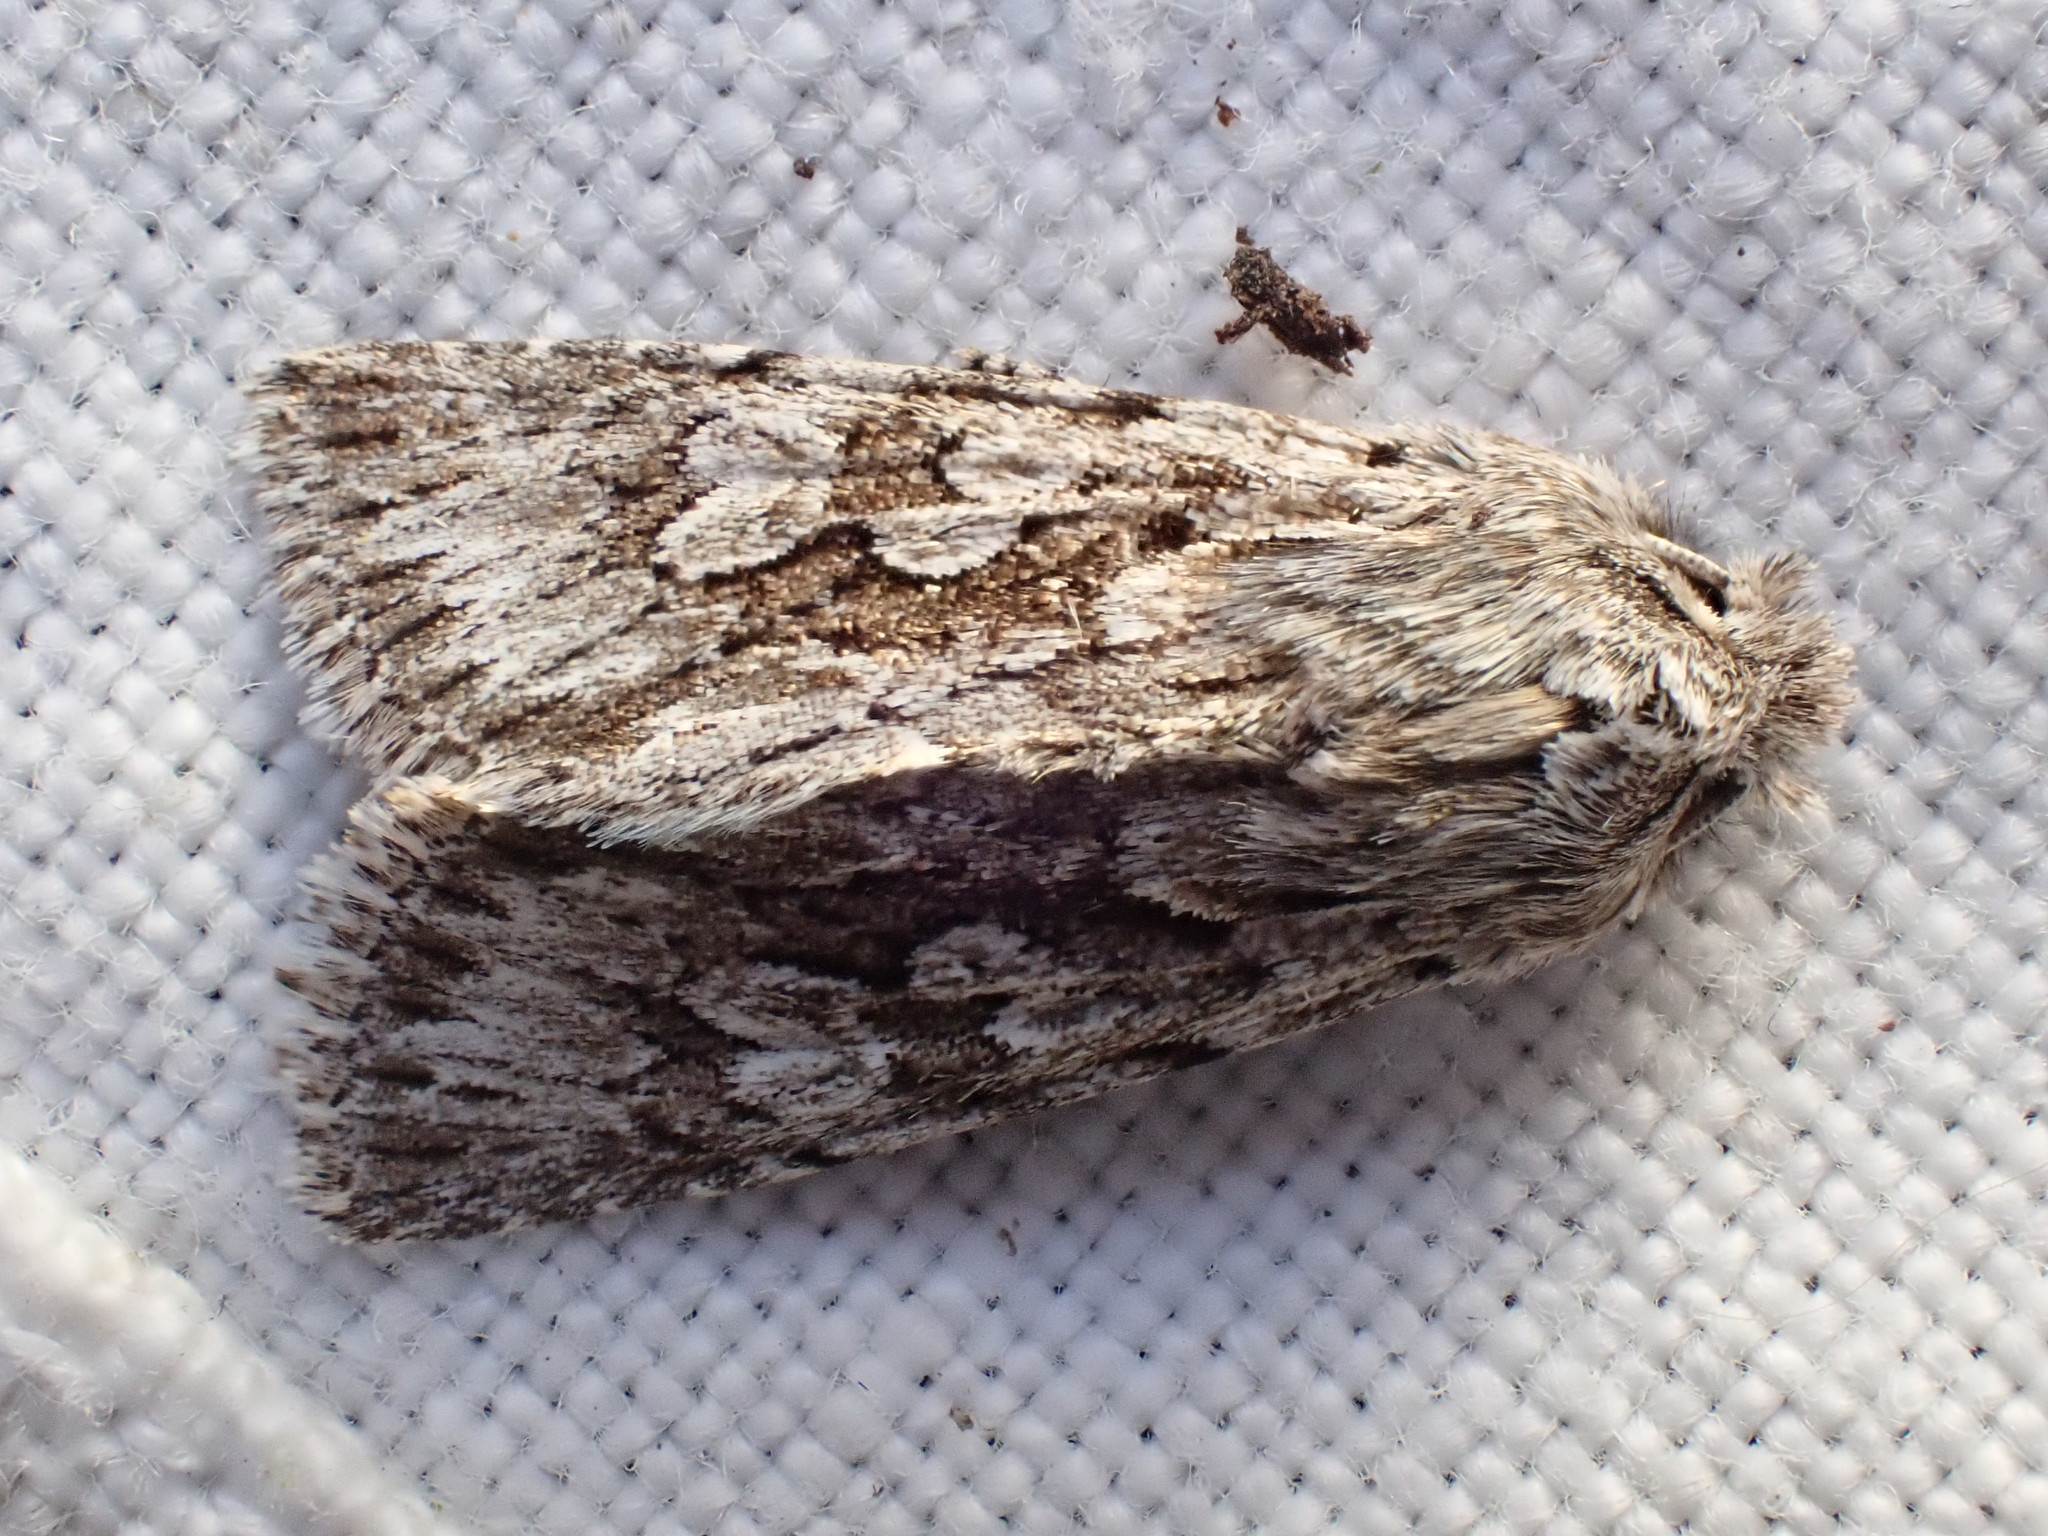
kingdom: Animalia
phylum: Arthropoda
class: Insecta
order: Lepidoptera
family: Noctuidae
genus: Xylocampa
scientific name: Xylocampa areola
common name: Early grey
